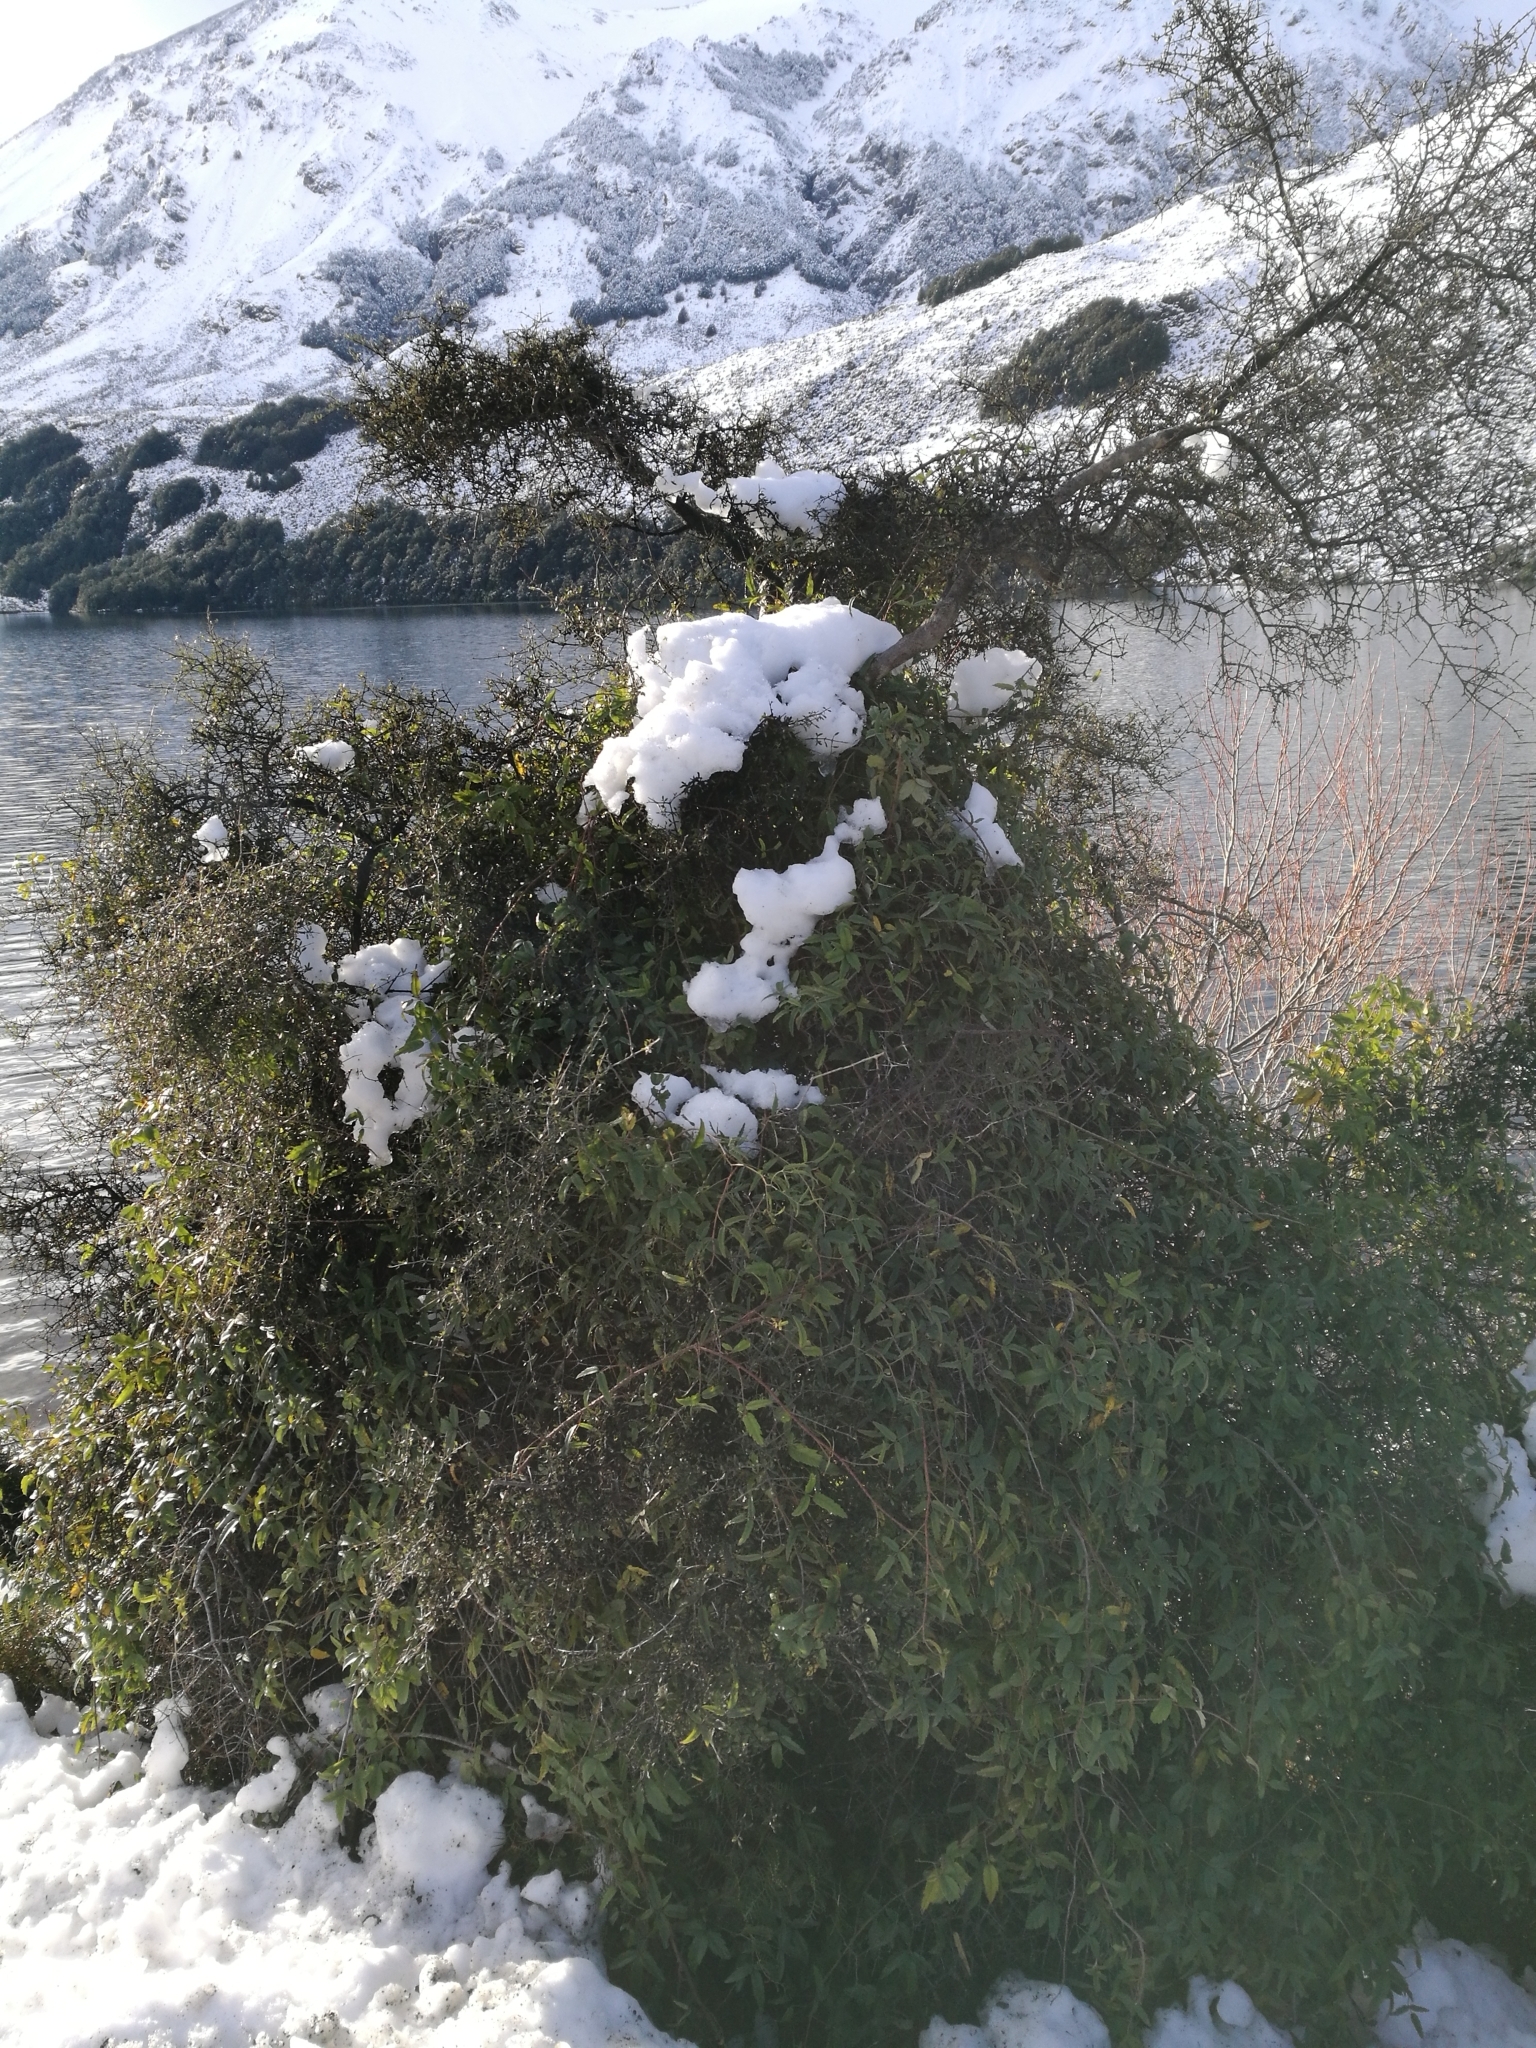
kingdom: Plantae
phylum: Tracheophyta
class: Magnoliopsida
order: Rosales
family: Rosaceae
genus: Rubus
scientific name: Rubus schmidelioides
